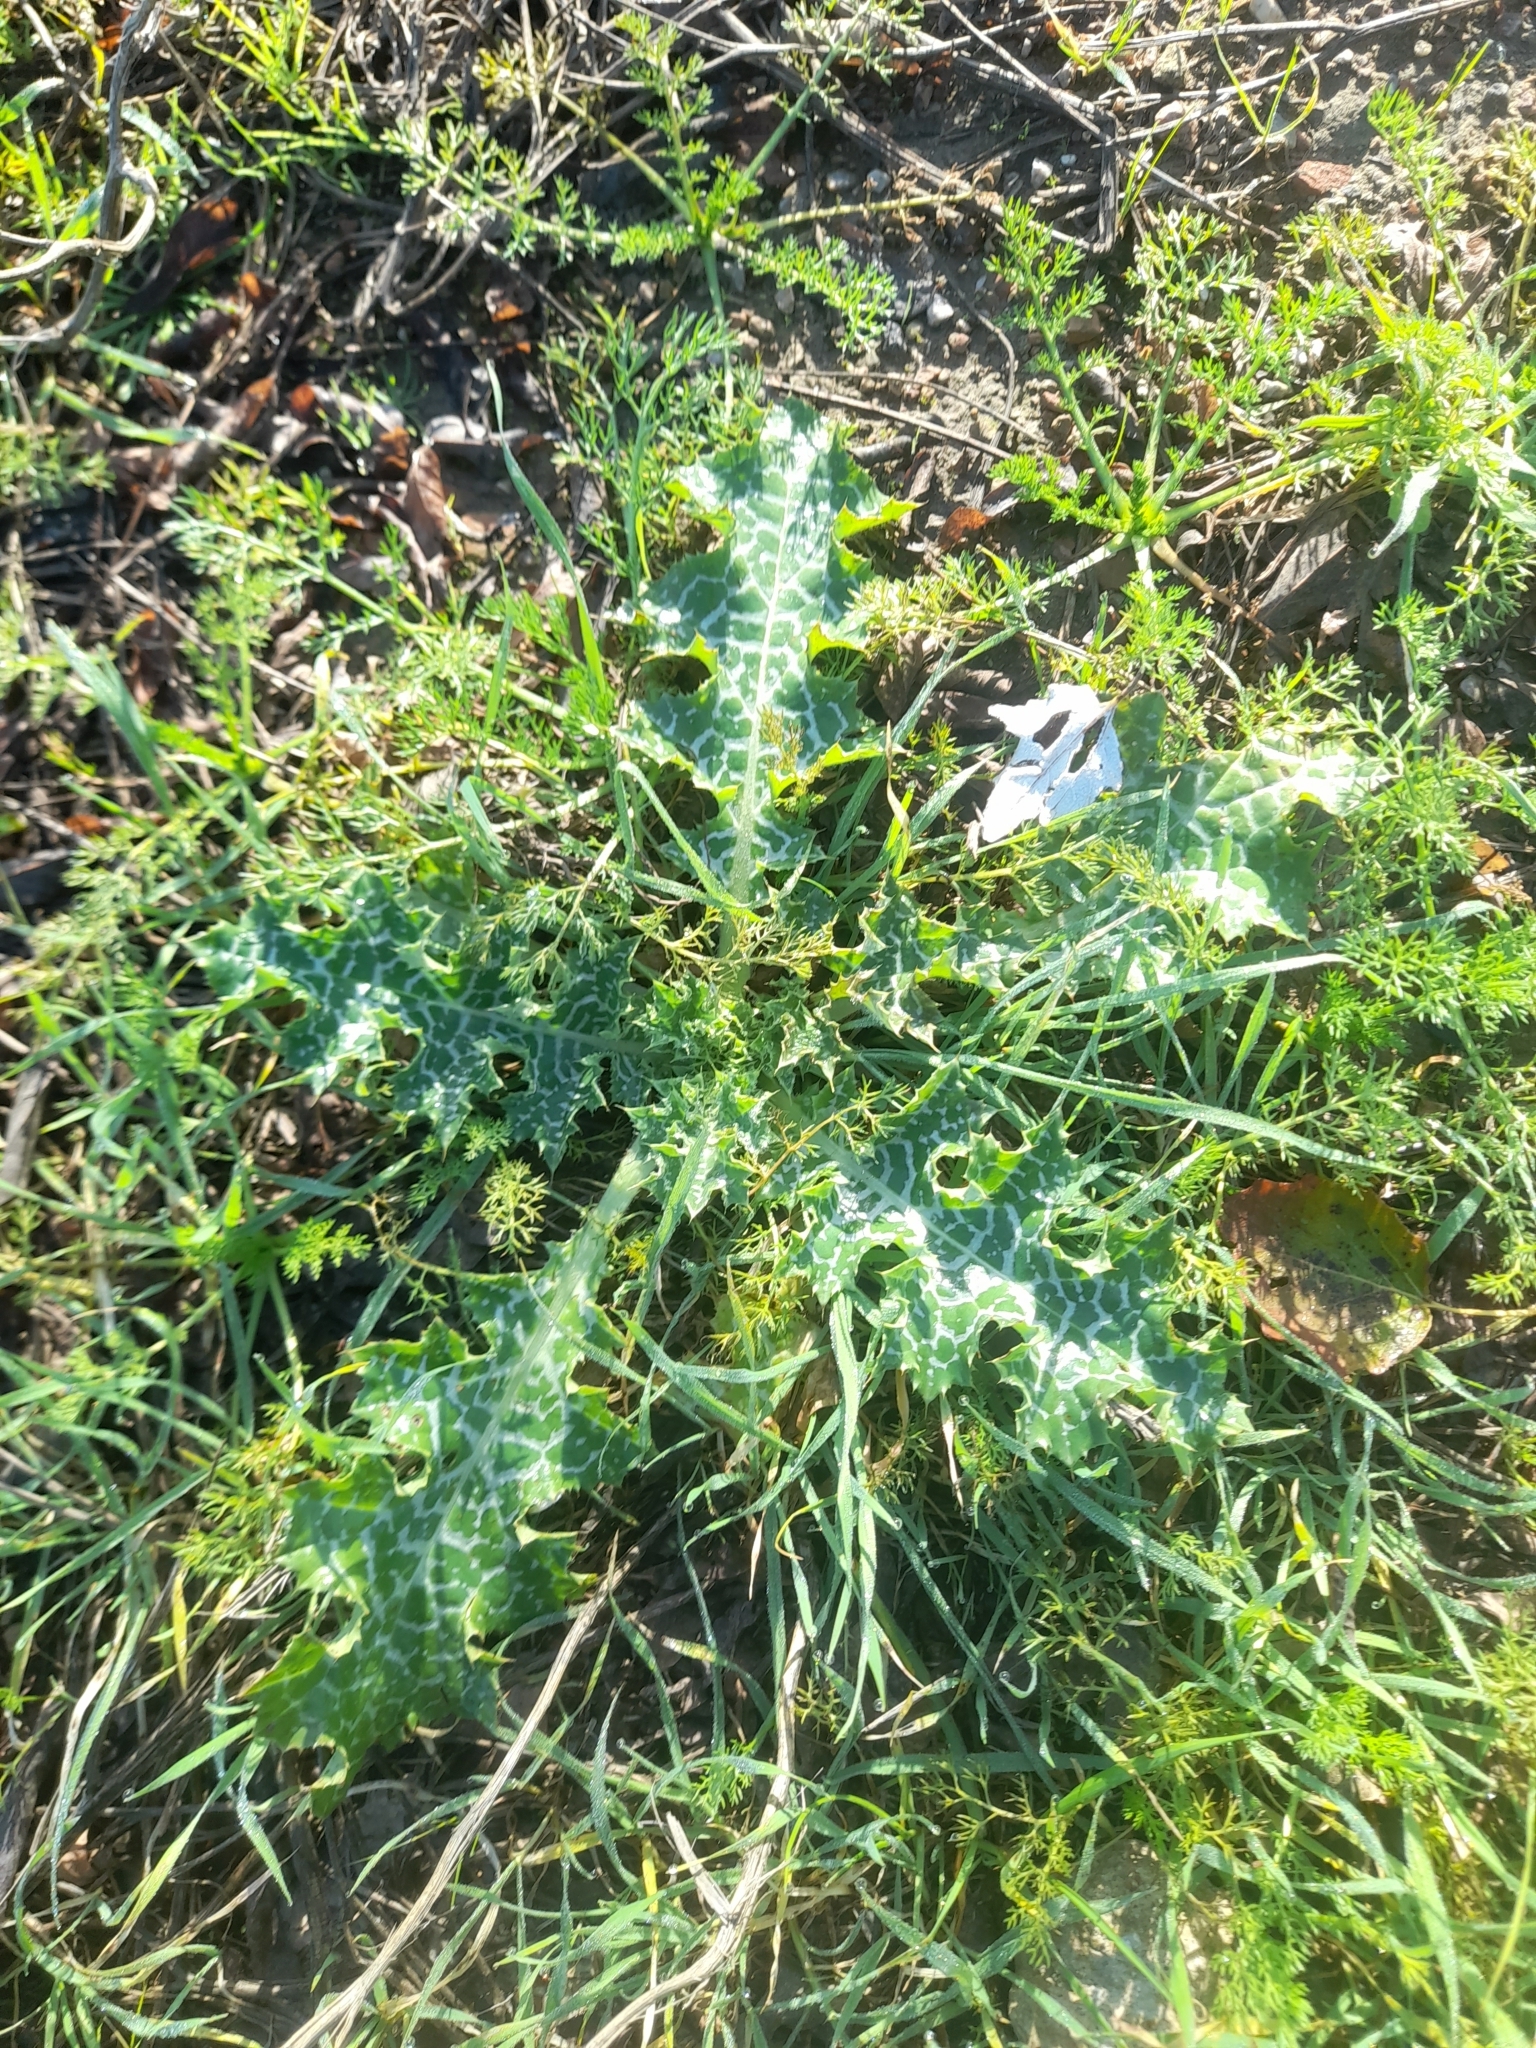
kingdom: Plantae
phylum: Tracheophyta
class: Magnoliopsida
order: Asterales
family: Asteraceae
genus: Silybum
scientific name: Silybum marianum
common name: Milk thistle
